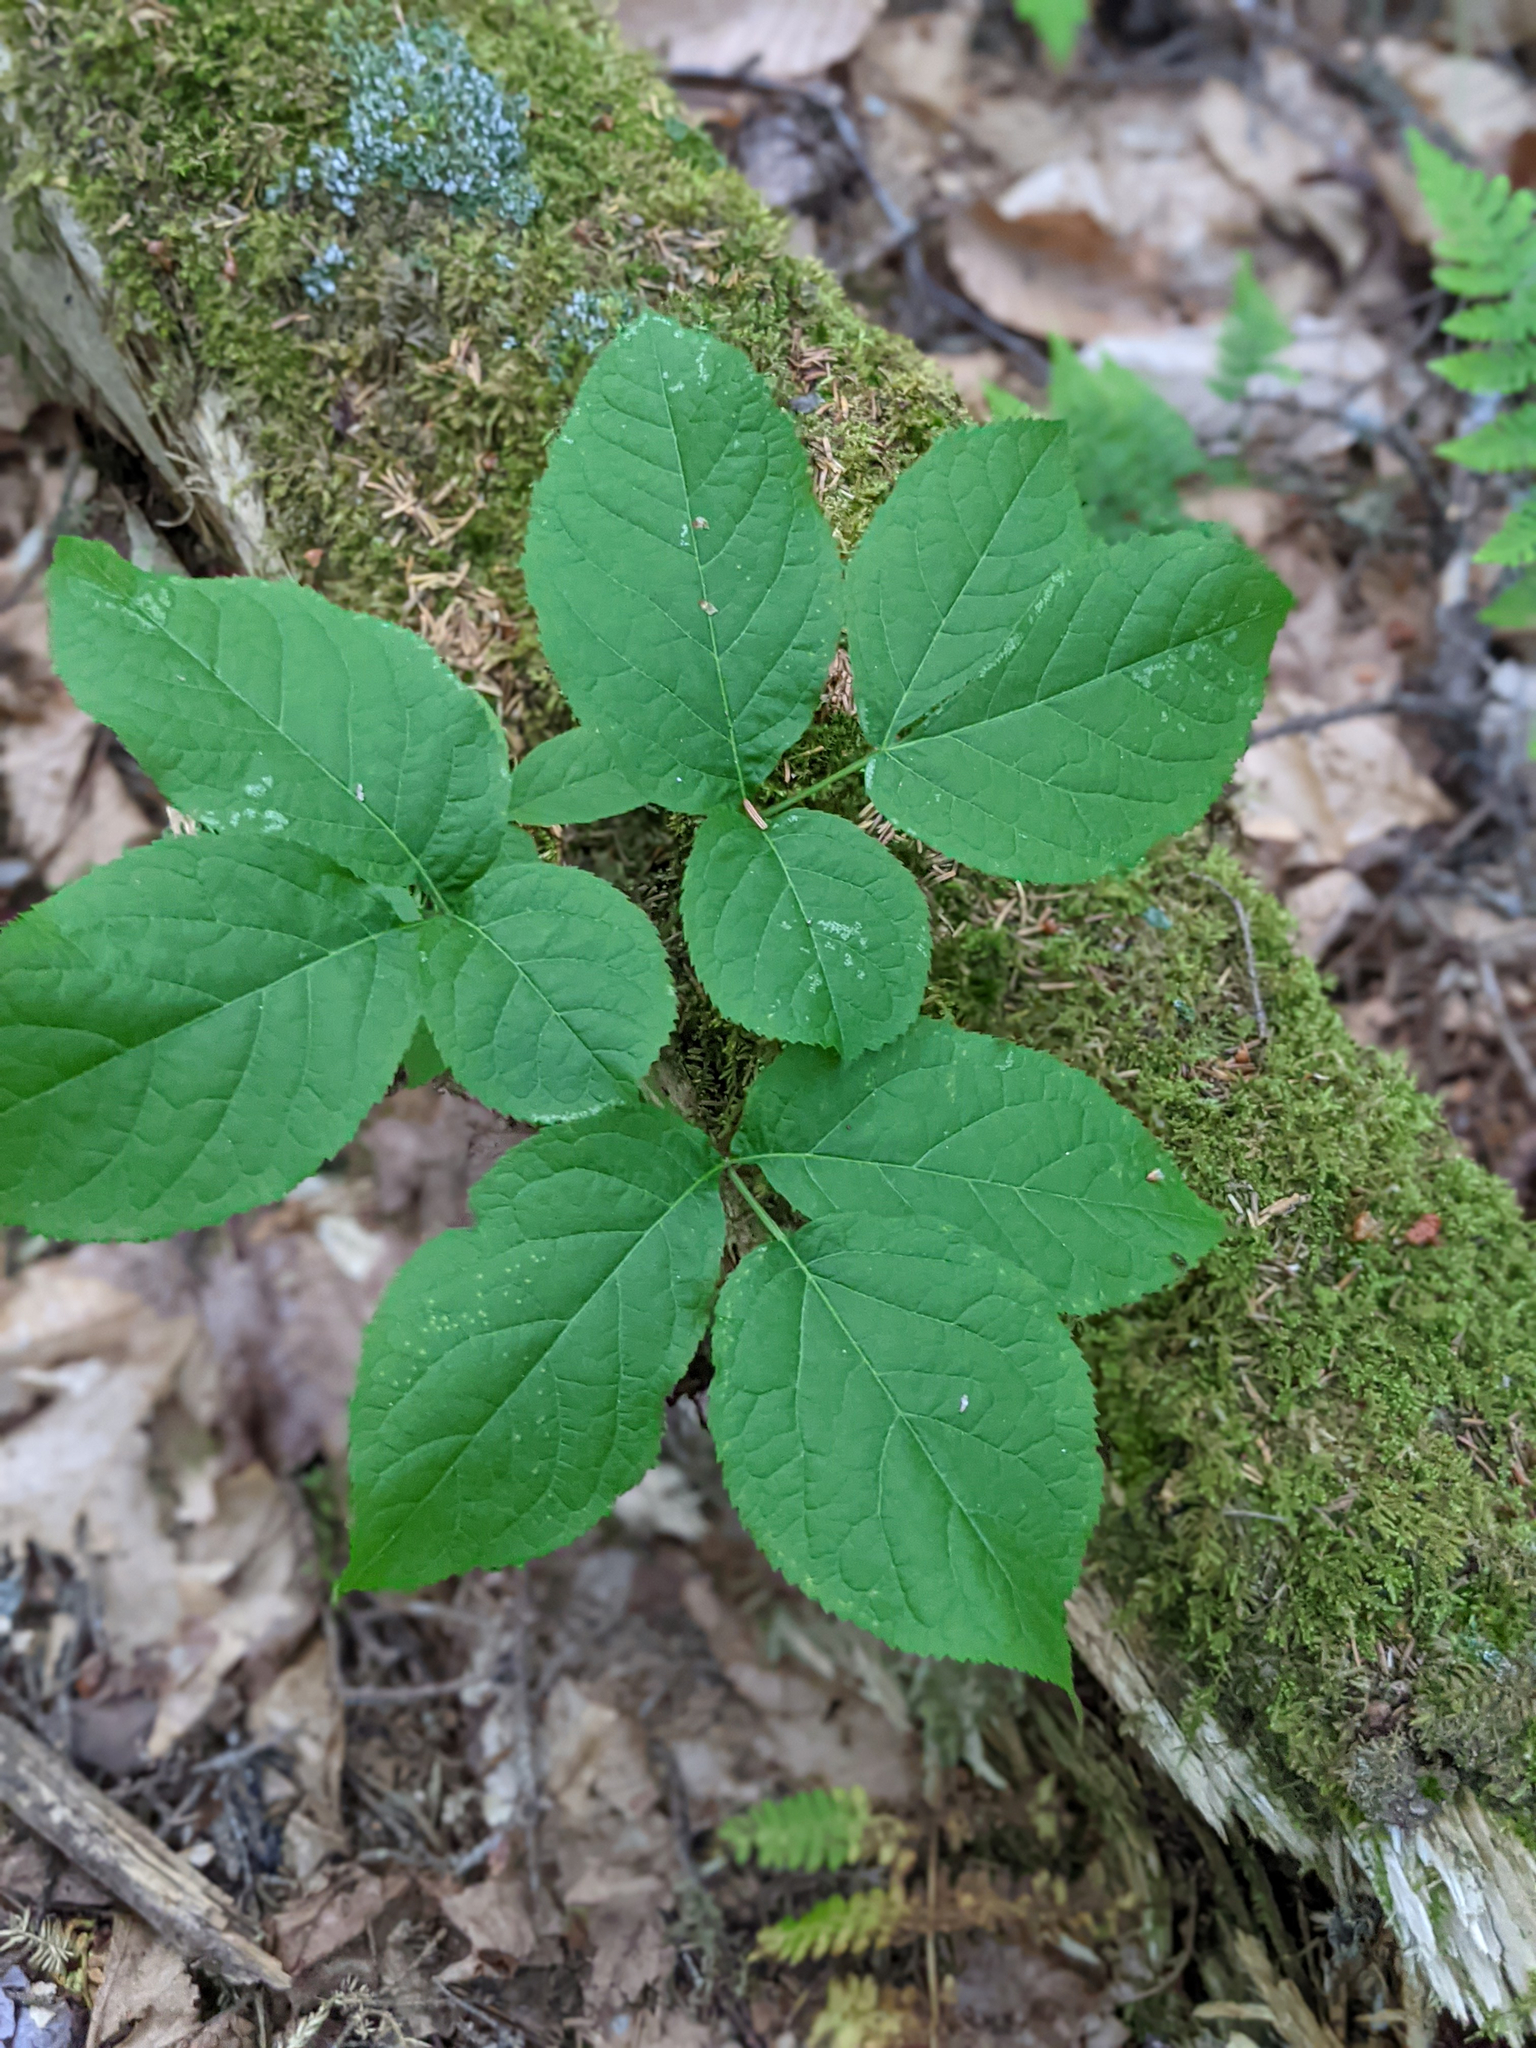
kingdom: Plantae
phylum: Tracheophyta
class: Magnoliopsida
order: Apiales
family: Araliaceae
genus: Aralia
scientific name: Aralia nudicaulis
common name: Wild sarsaparilla
